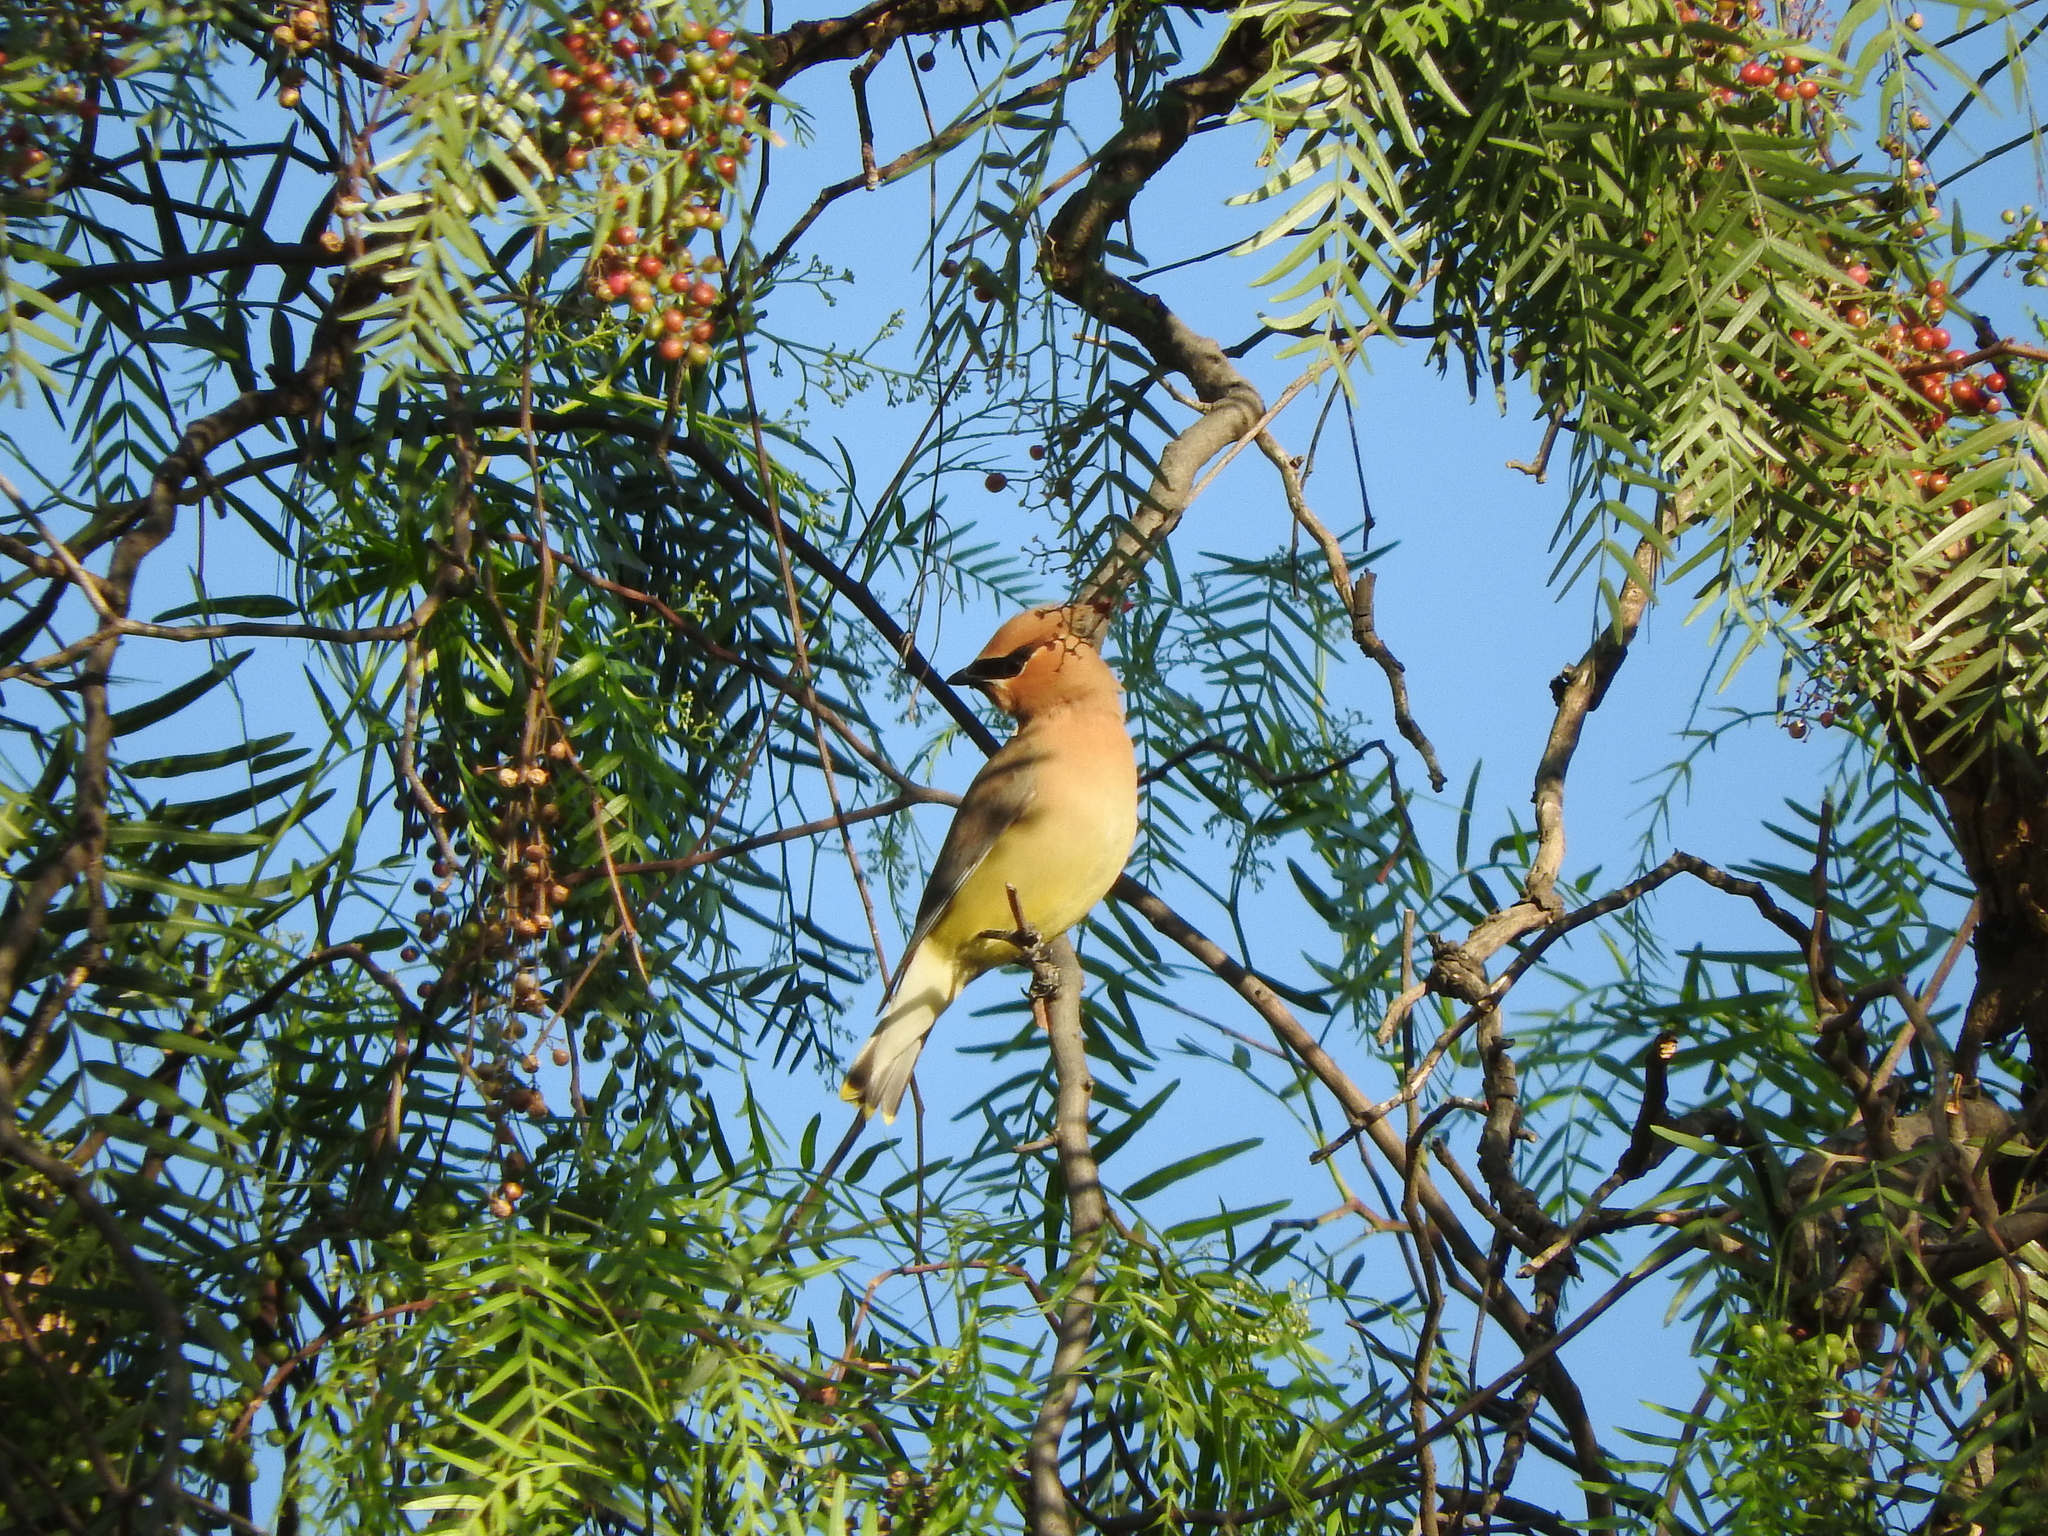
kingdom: Animalia
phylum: Chordata
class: Aves
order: Passeriformes
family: Bombycillidae
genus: Bombycilla
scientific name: Bombycilla cedrorum
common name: Cedar waxwing
